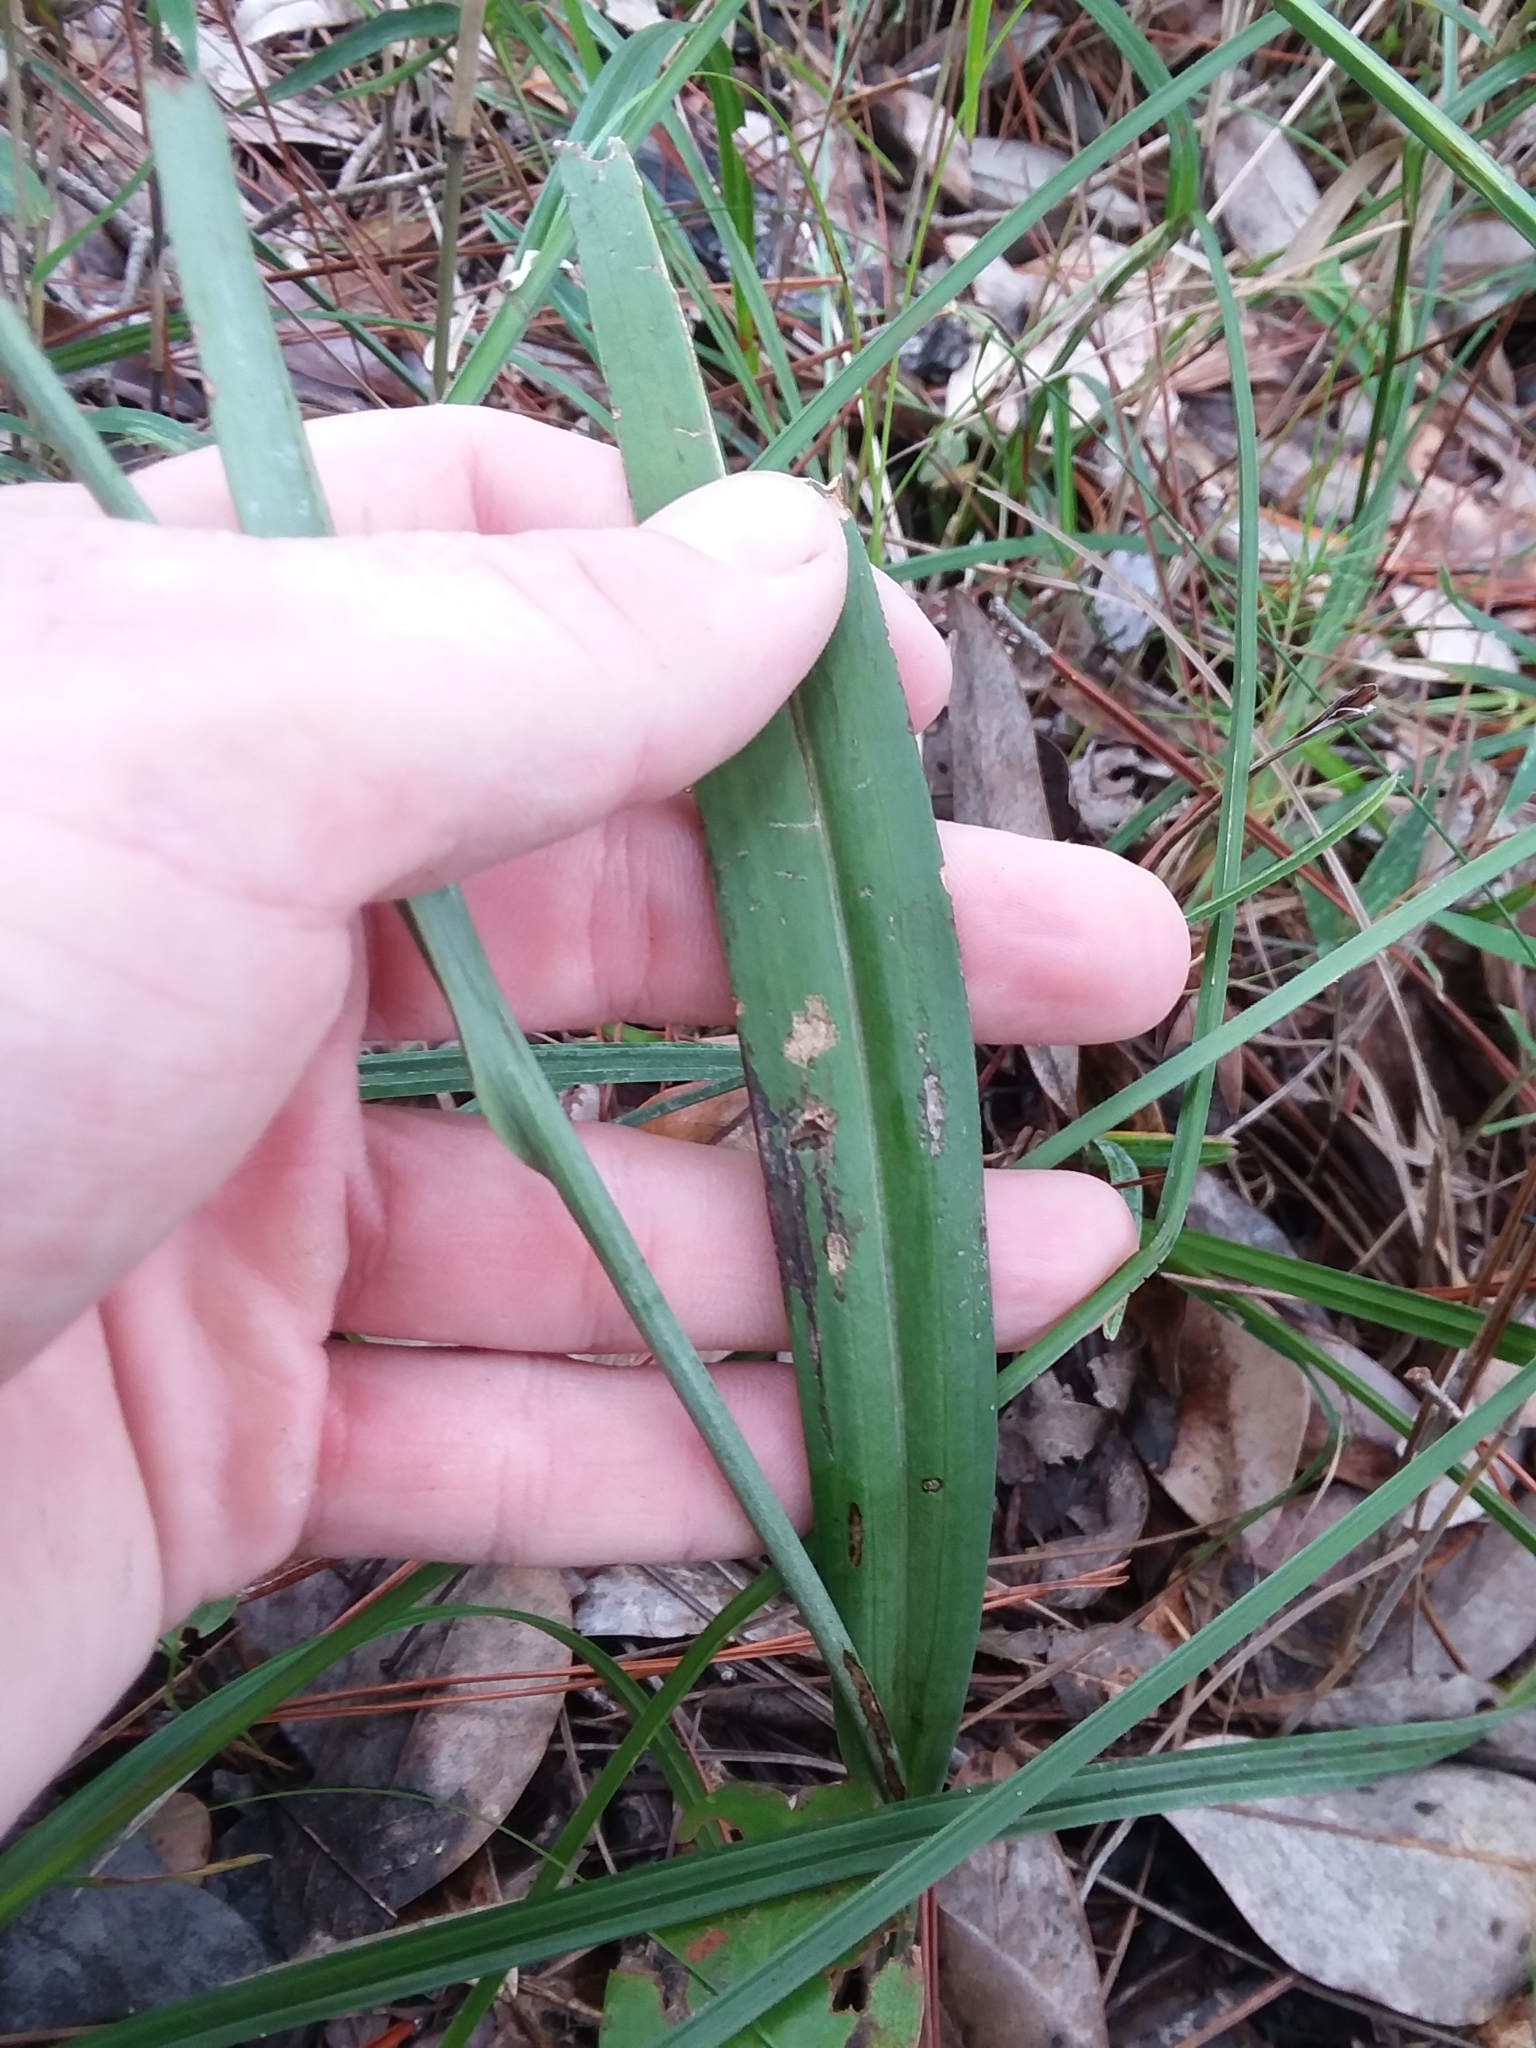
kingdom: Plantae
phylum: Tracheophyta
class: Liliopsida
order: Asparagales
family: Orchidaceae
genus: Platanthera
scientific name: Platanthera cristata
